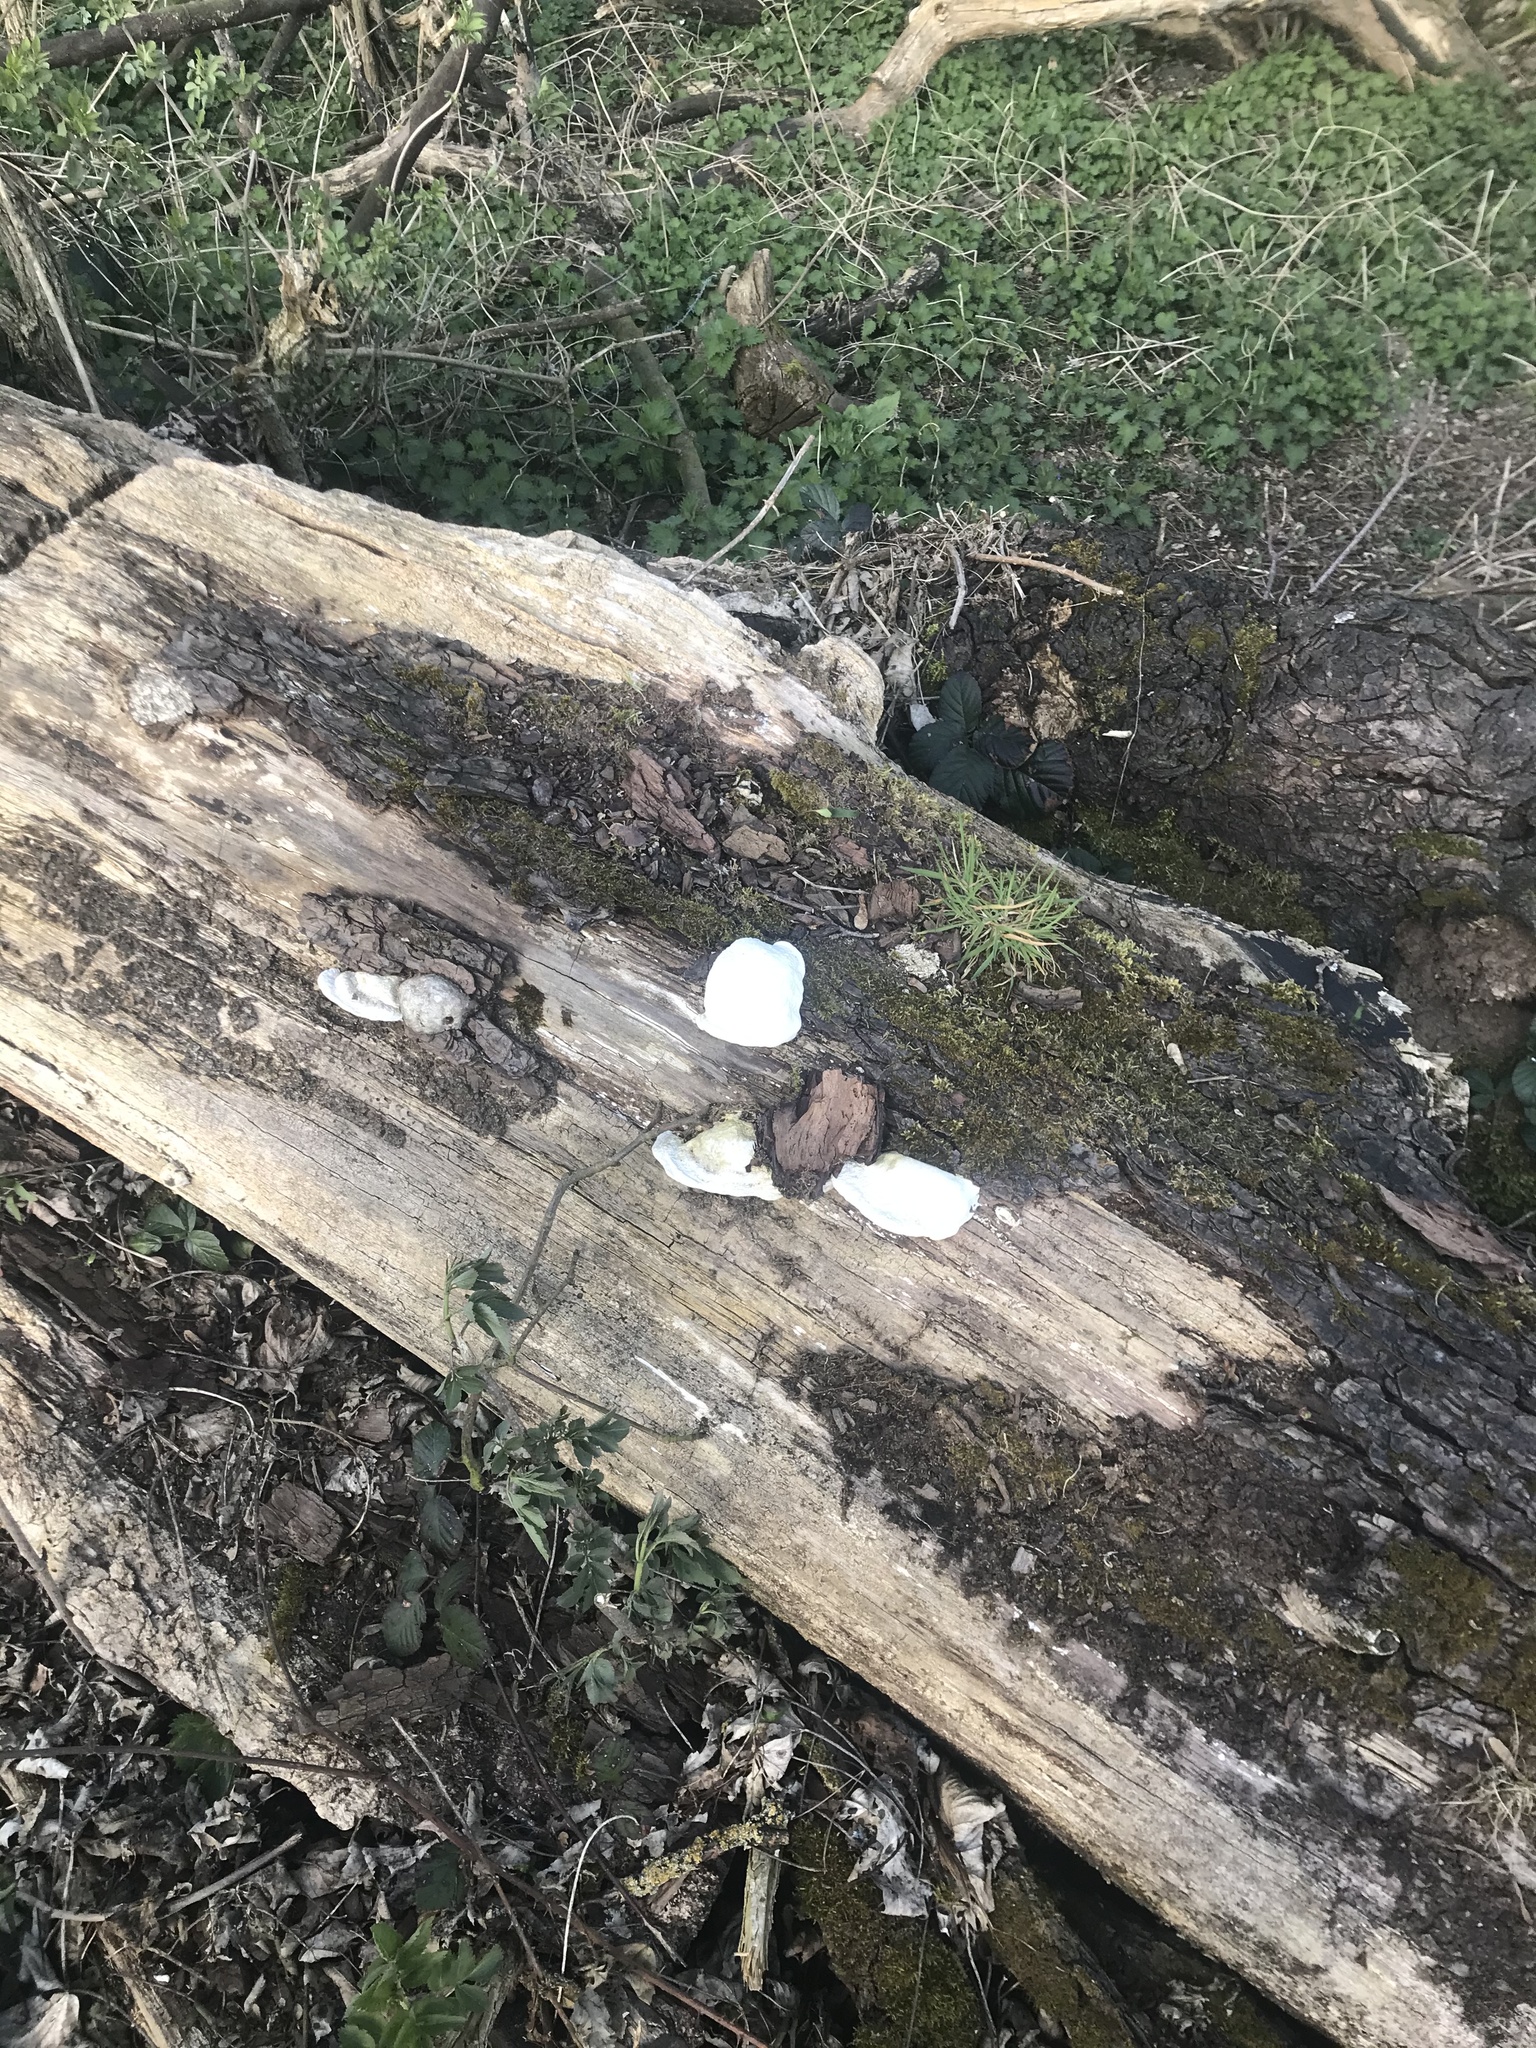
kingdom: Fungi
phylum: Basidiomycota
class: Agaricomycetes
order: Polyporales
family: Polyporaceae
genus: Trametes
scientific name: Trametes elegans
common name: White maze polypore
